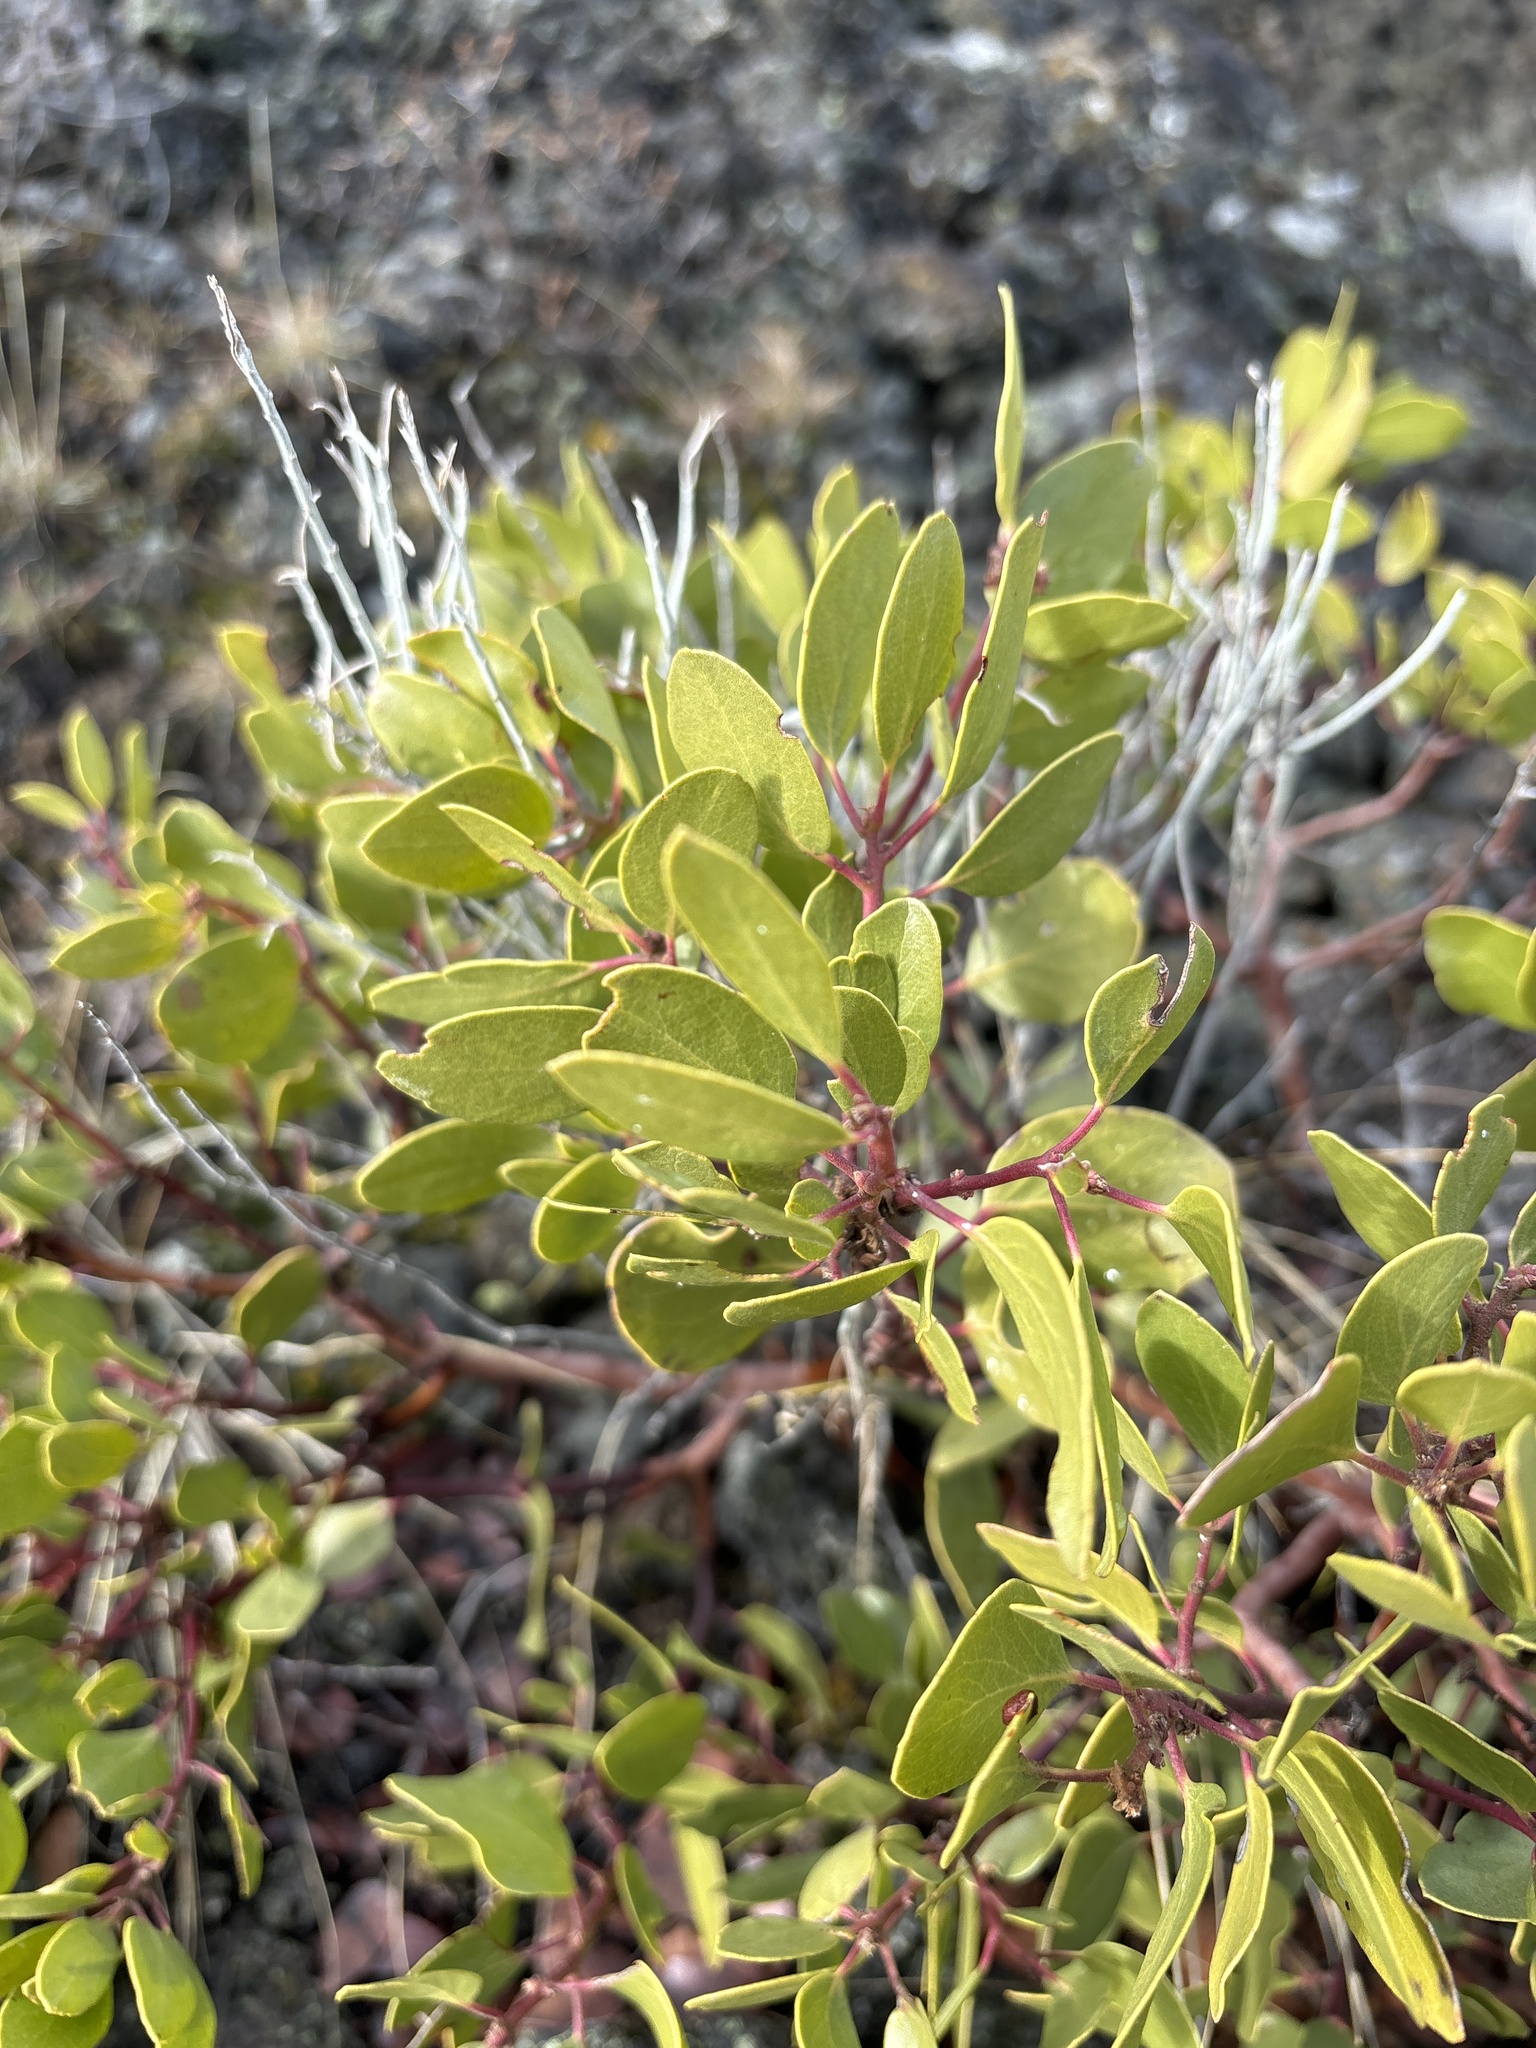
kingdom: Plantae
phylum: Tracheophyta
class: Magnoliopsida
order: Ericales
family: Ericaceae
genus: Arctostaphylos
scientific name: Arctostaphylos patula
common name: Green-leaf manzanita
